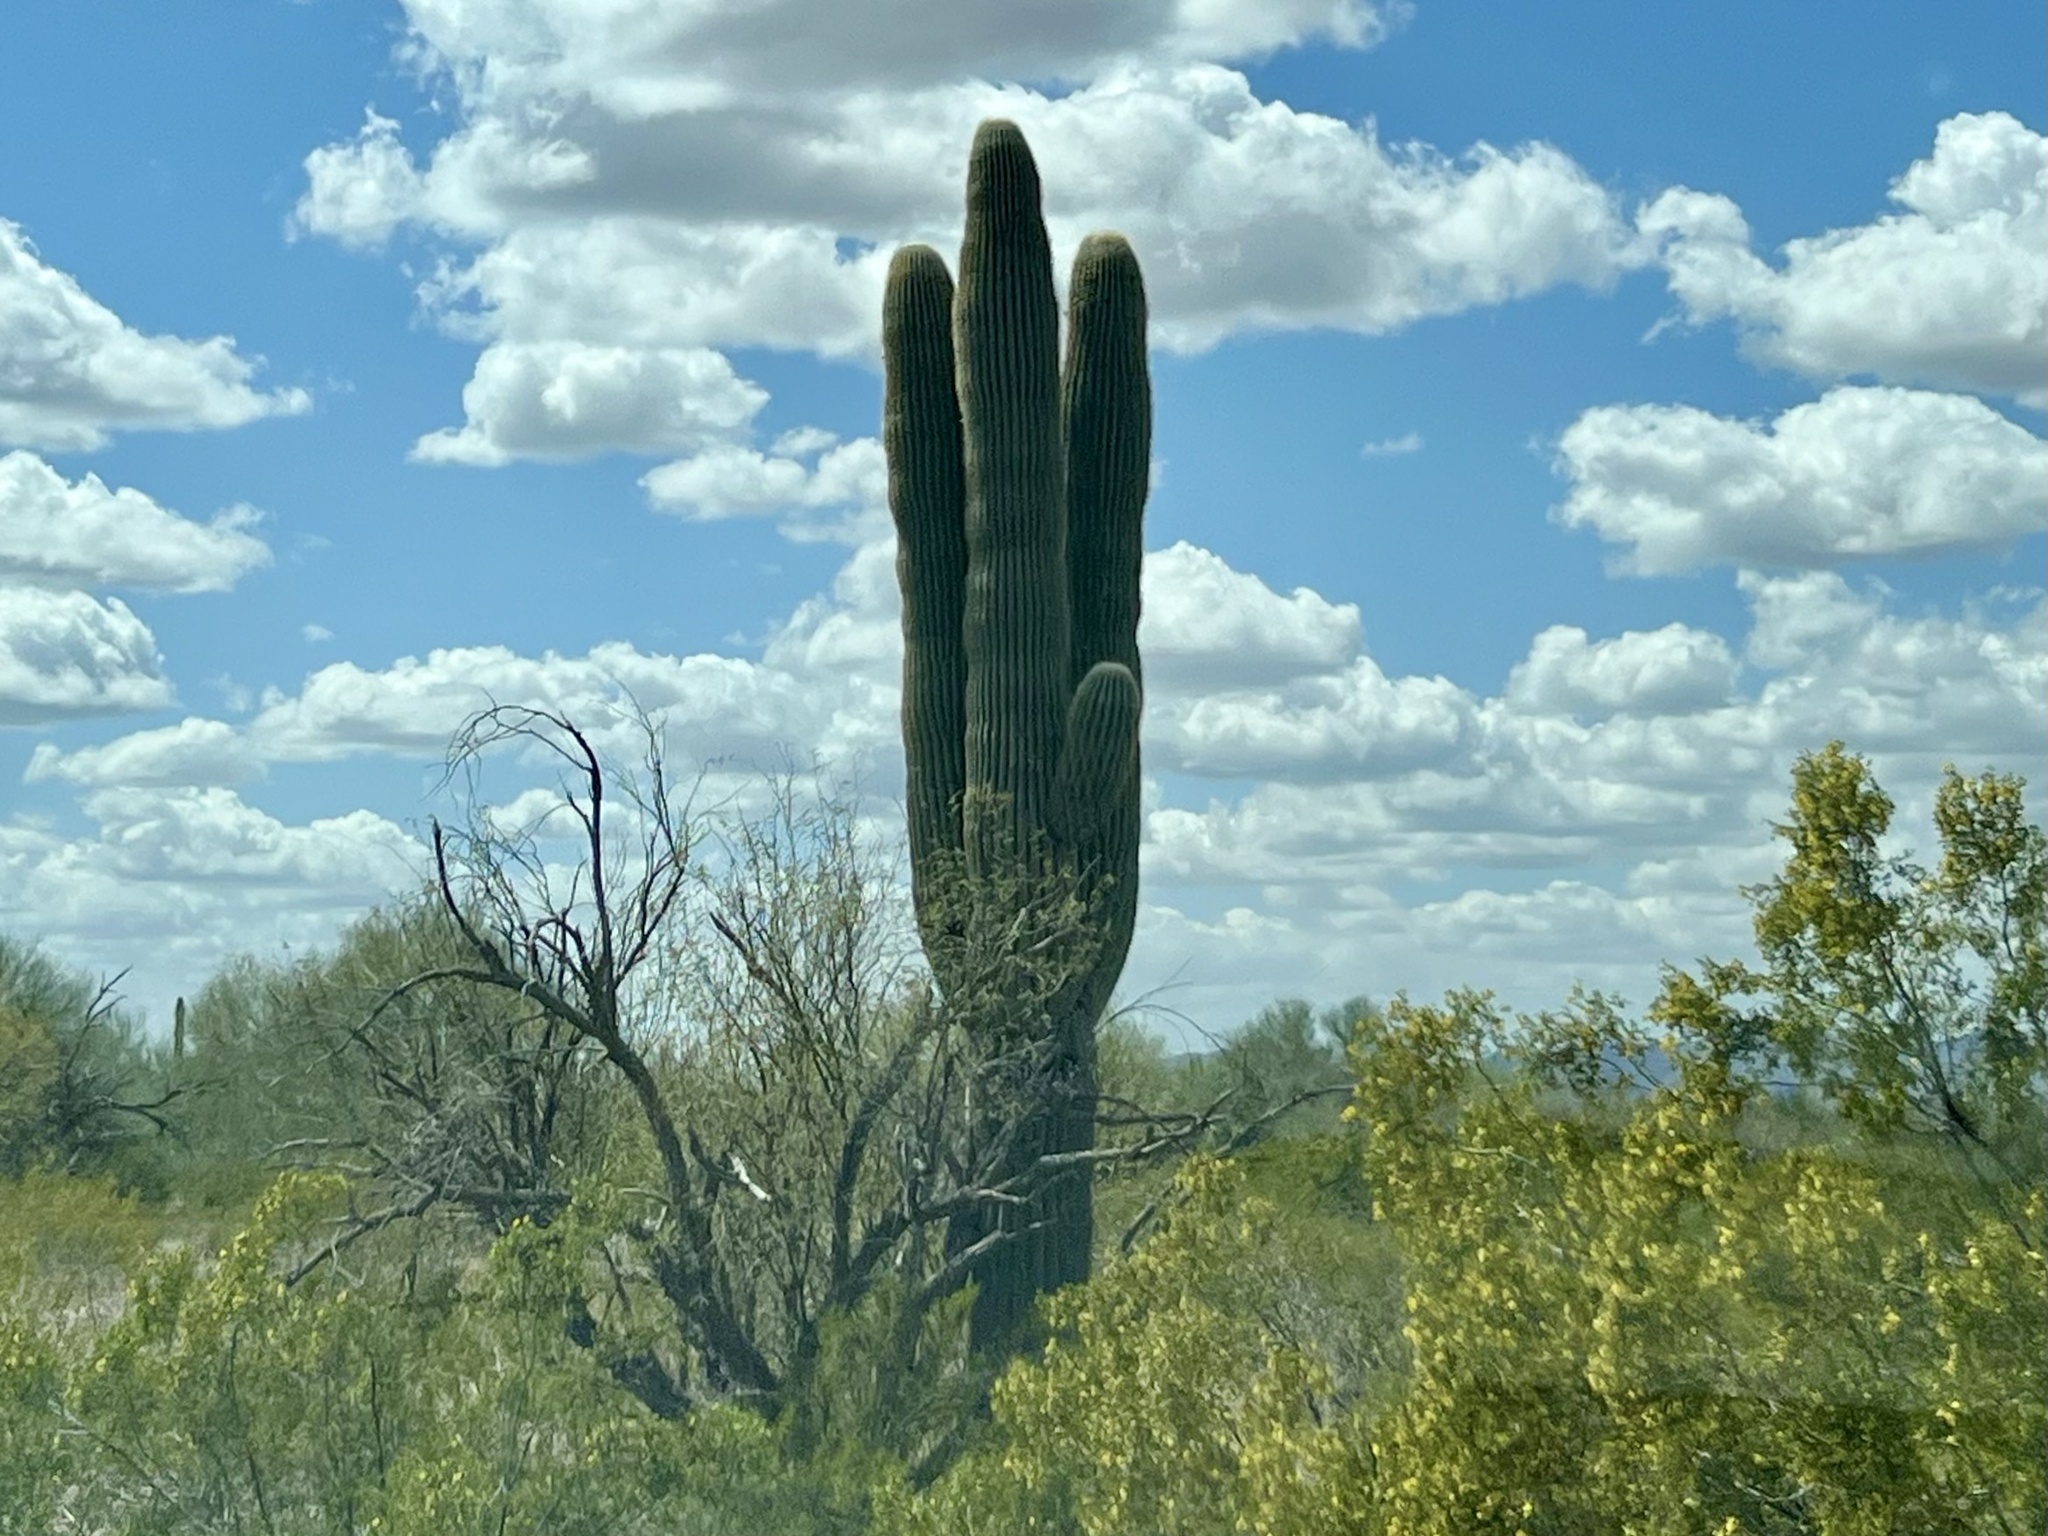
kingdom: Plantae
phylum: Tracheophyta
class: Magnoliopsida
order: Caryophyllales
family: Cactaceae
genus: Carnegiea
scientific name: Carnegiea gigantea
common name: Saguaro
